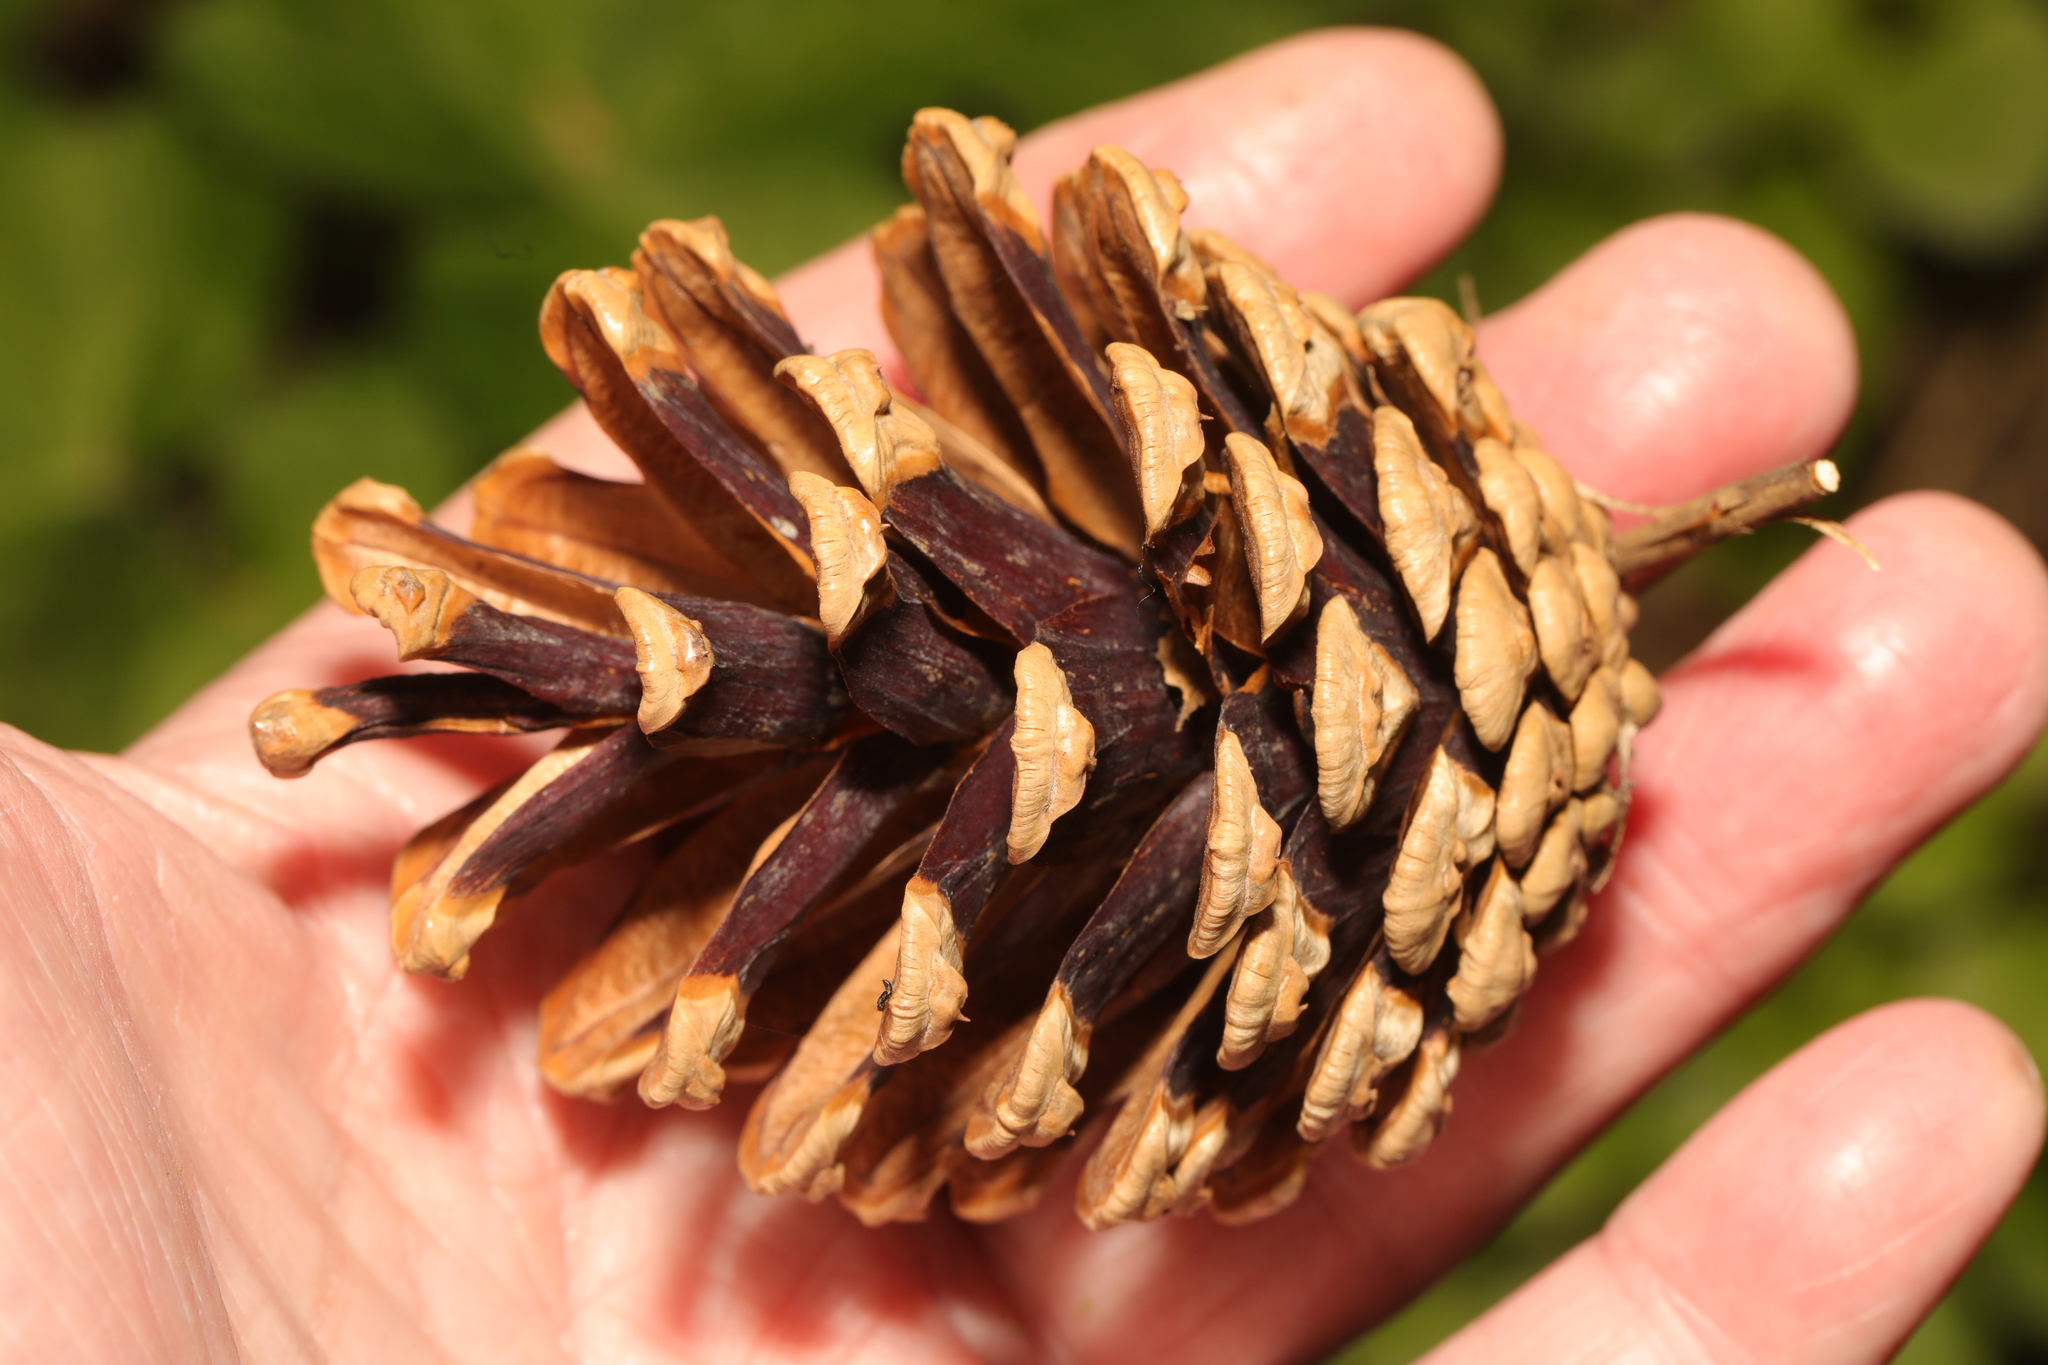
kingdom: Plantae
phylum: Tracheophyta
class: Pinopsida
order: Pinales
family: Pinaceae
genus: Pinus
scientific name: Pinus sylvestris
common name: Scots pine
